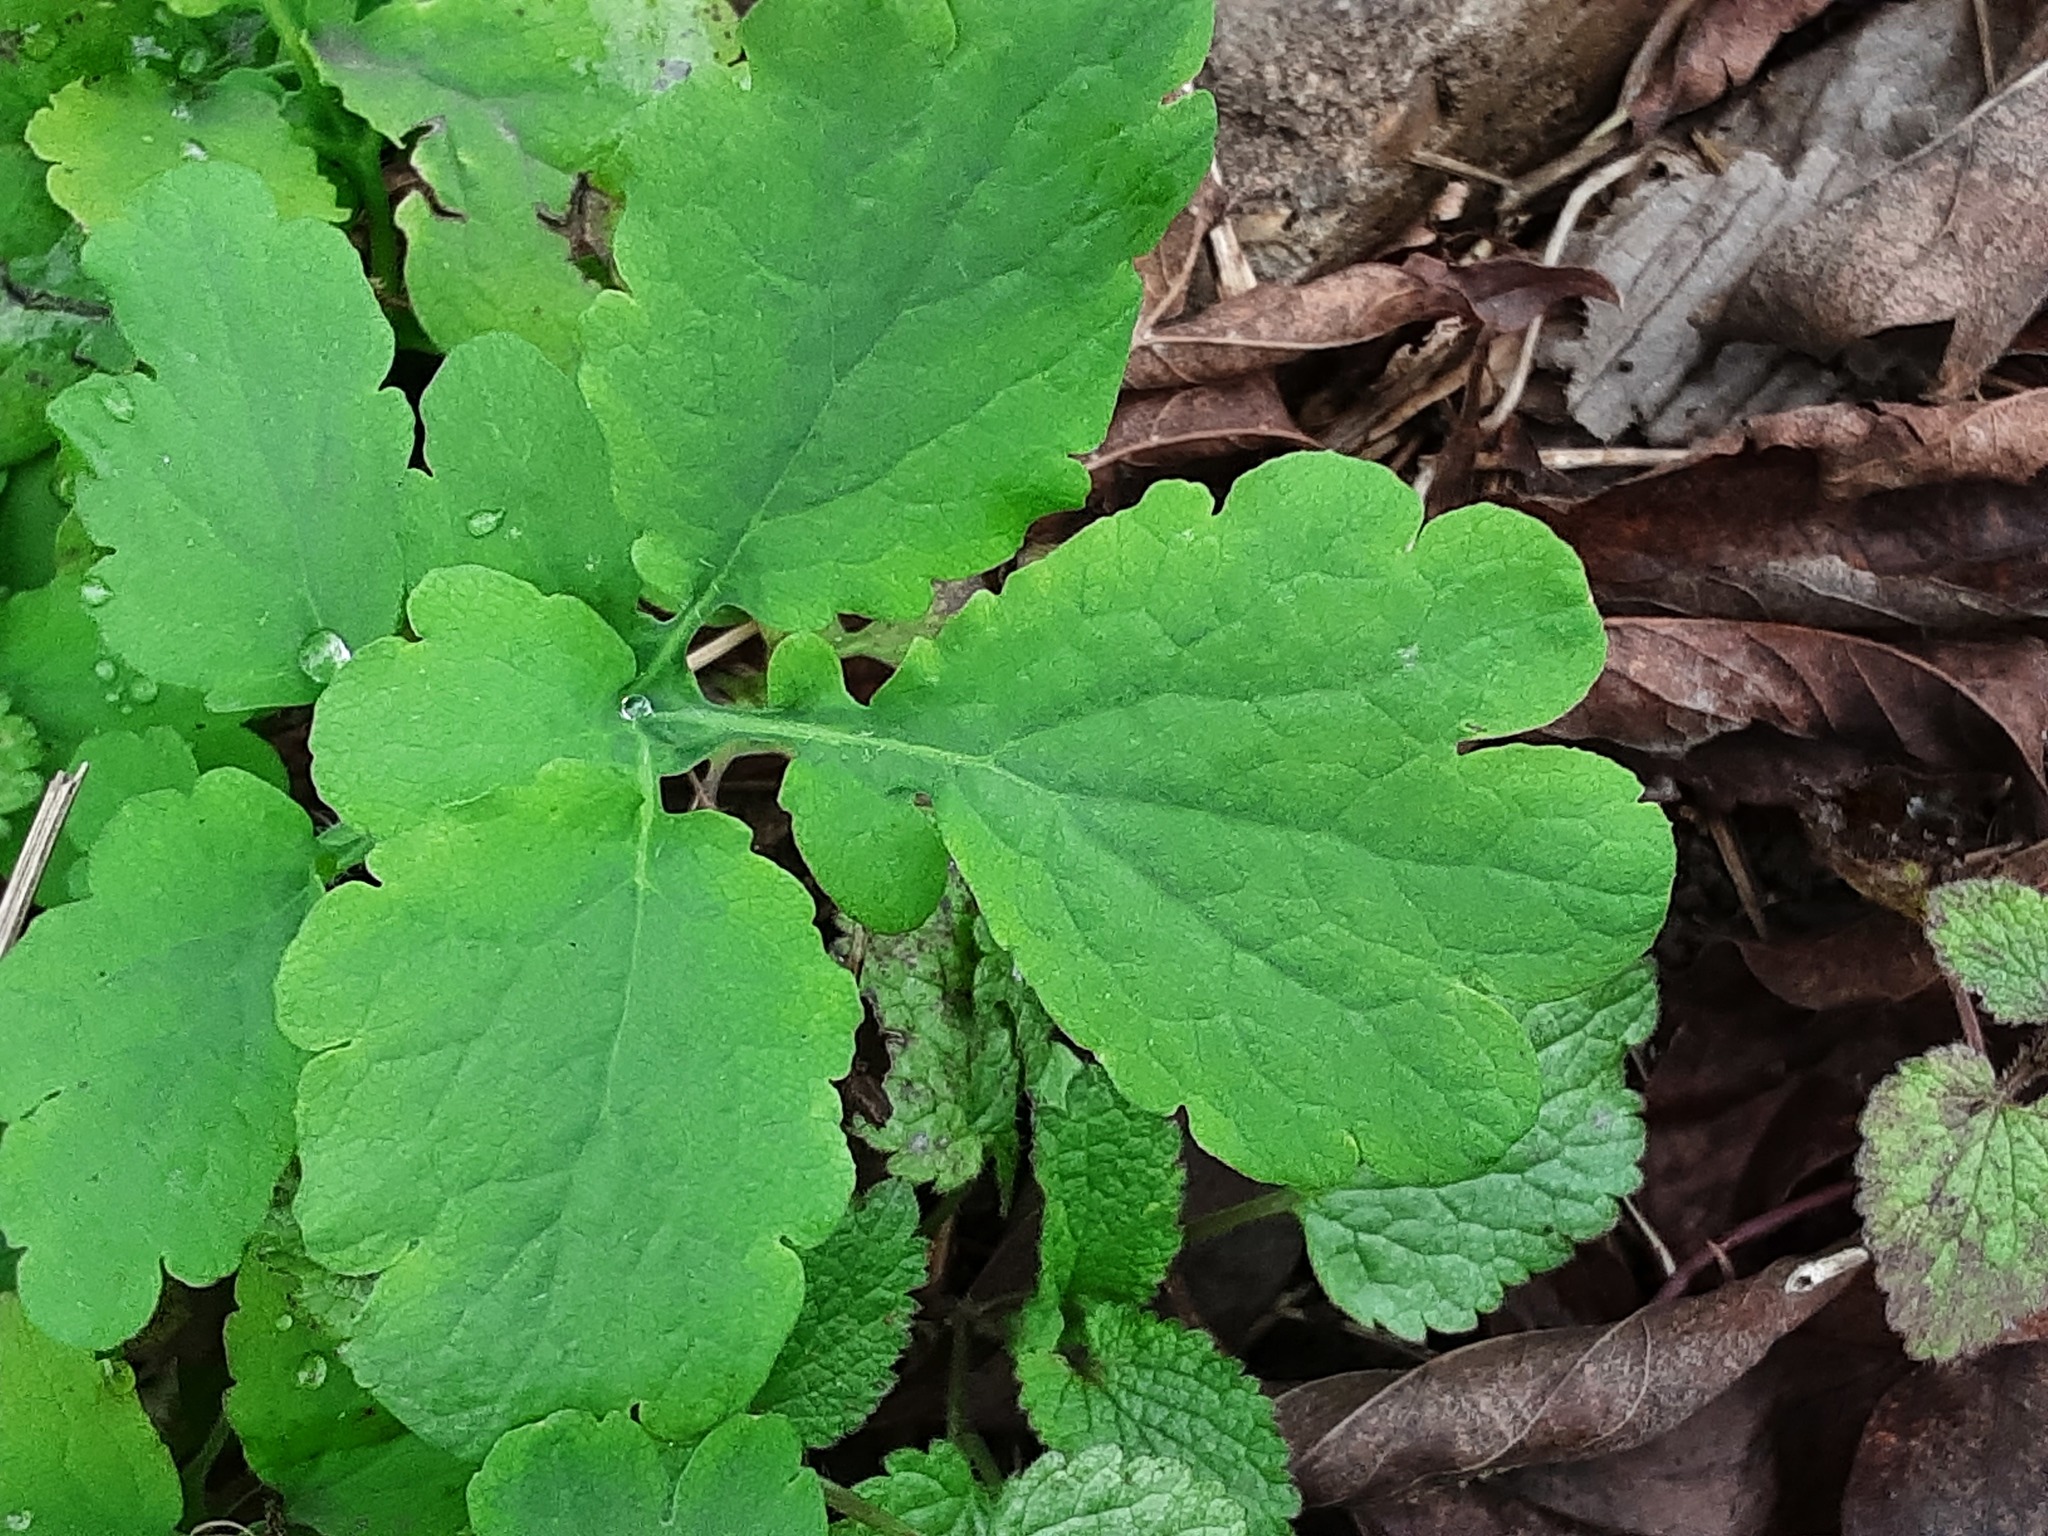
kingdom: Plantae
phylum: Tracheophyta
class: Magnoliopsida
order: Ranunculales
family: Papaveraceae
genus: Chelidonium
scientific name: Chelidonium majus
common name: Greater celandine
